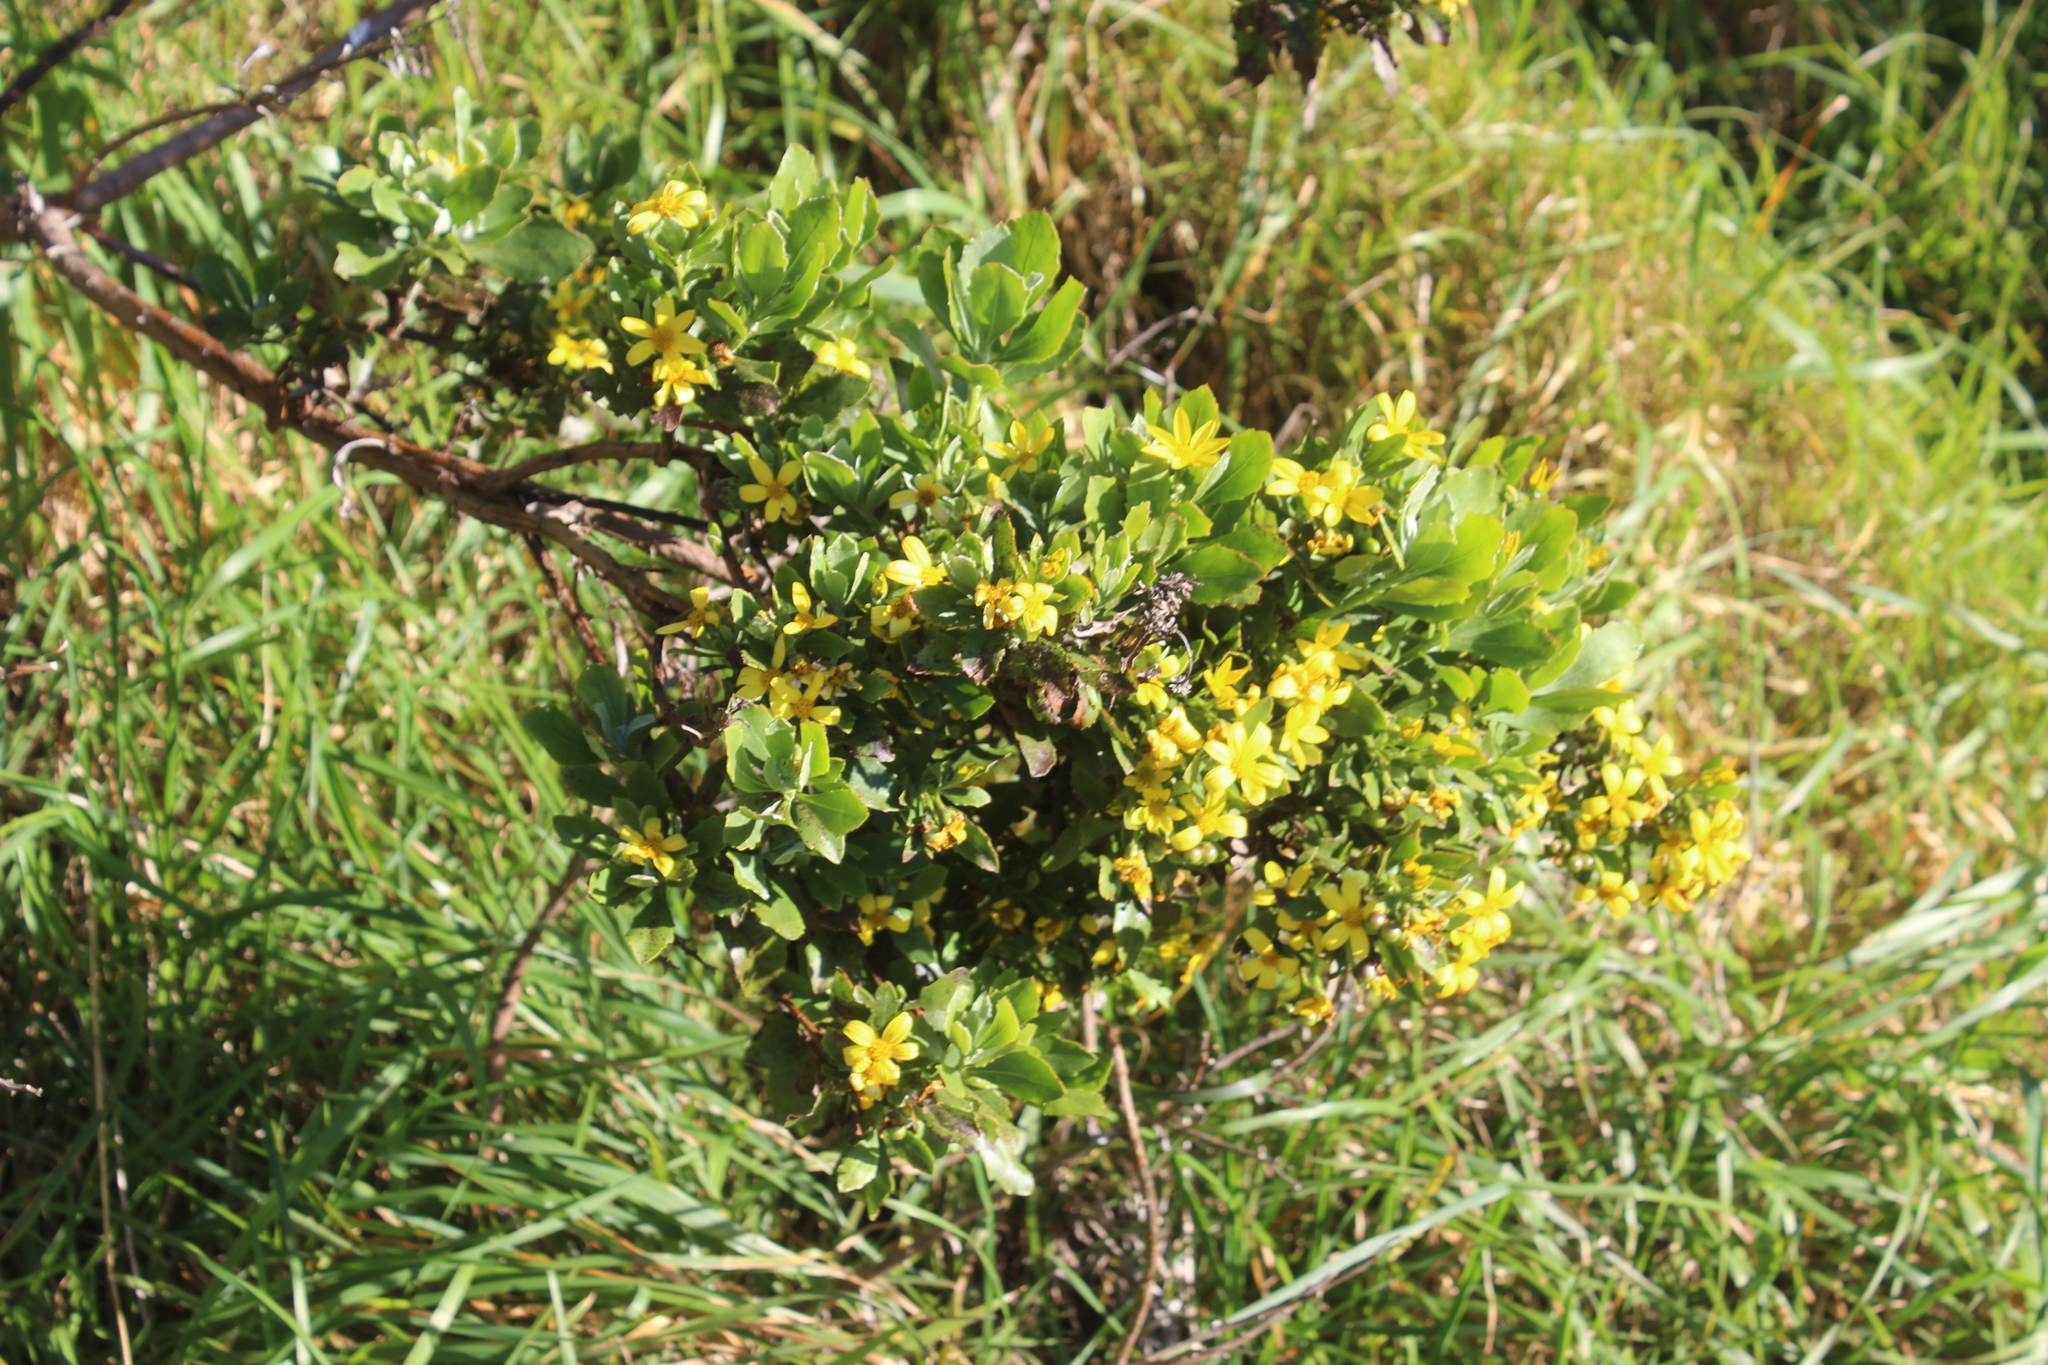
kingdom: Plantae
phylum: Tracheophyta
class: Magnoliopsida
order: Asterales
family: Asteraceae
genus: Osteospermum
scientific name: Osteospermum moniliferum
